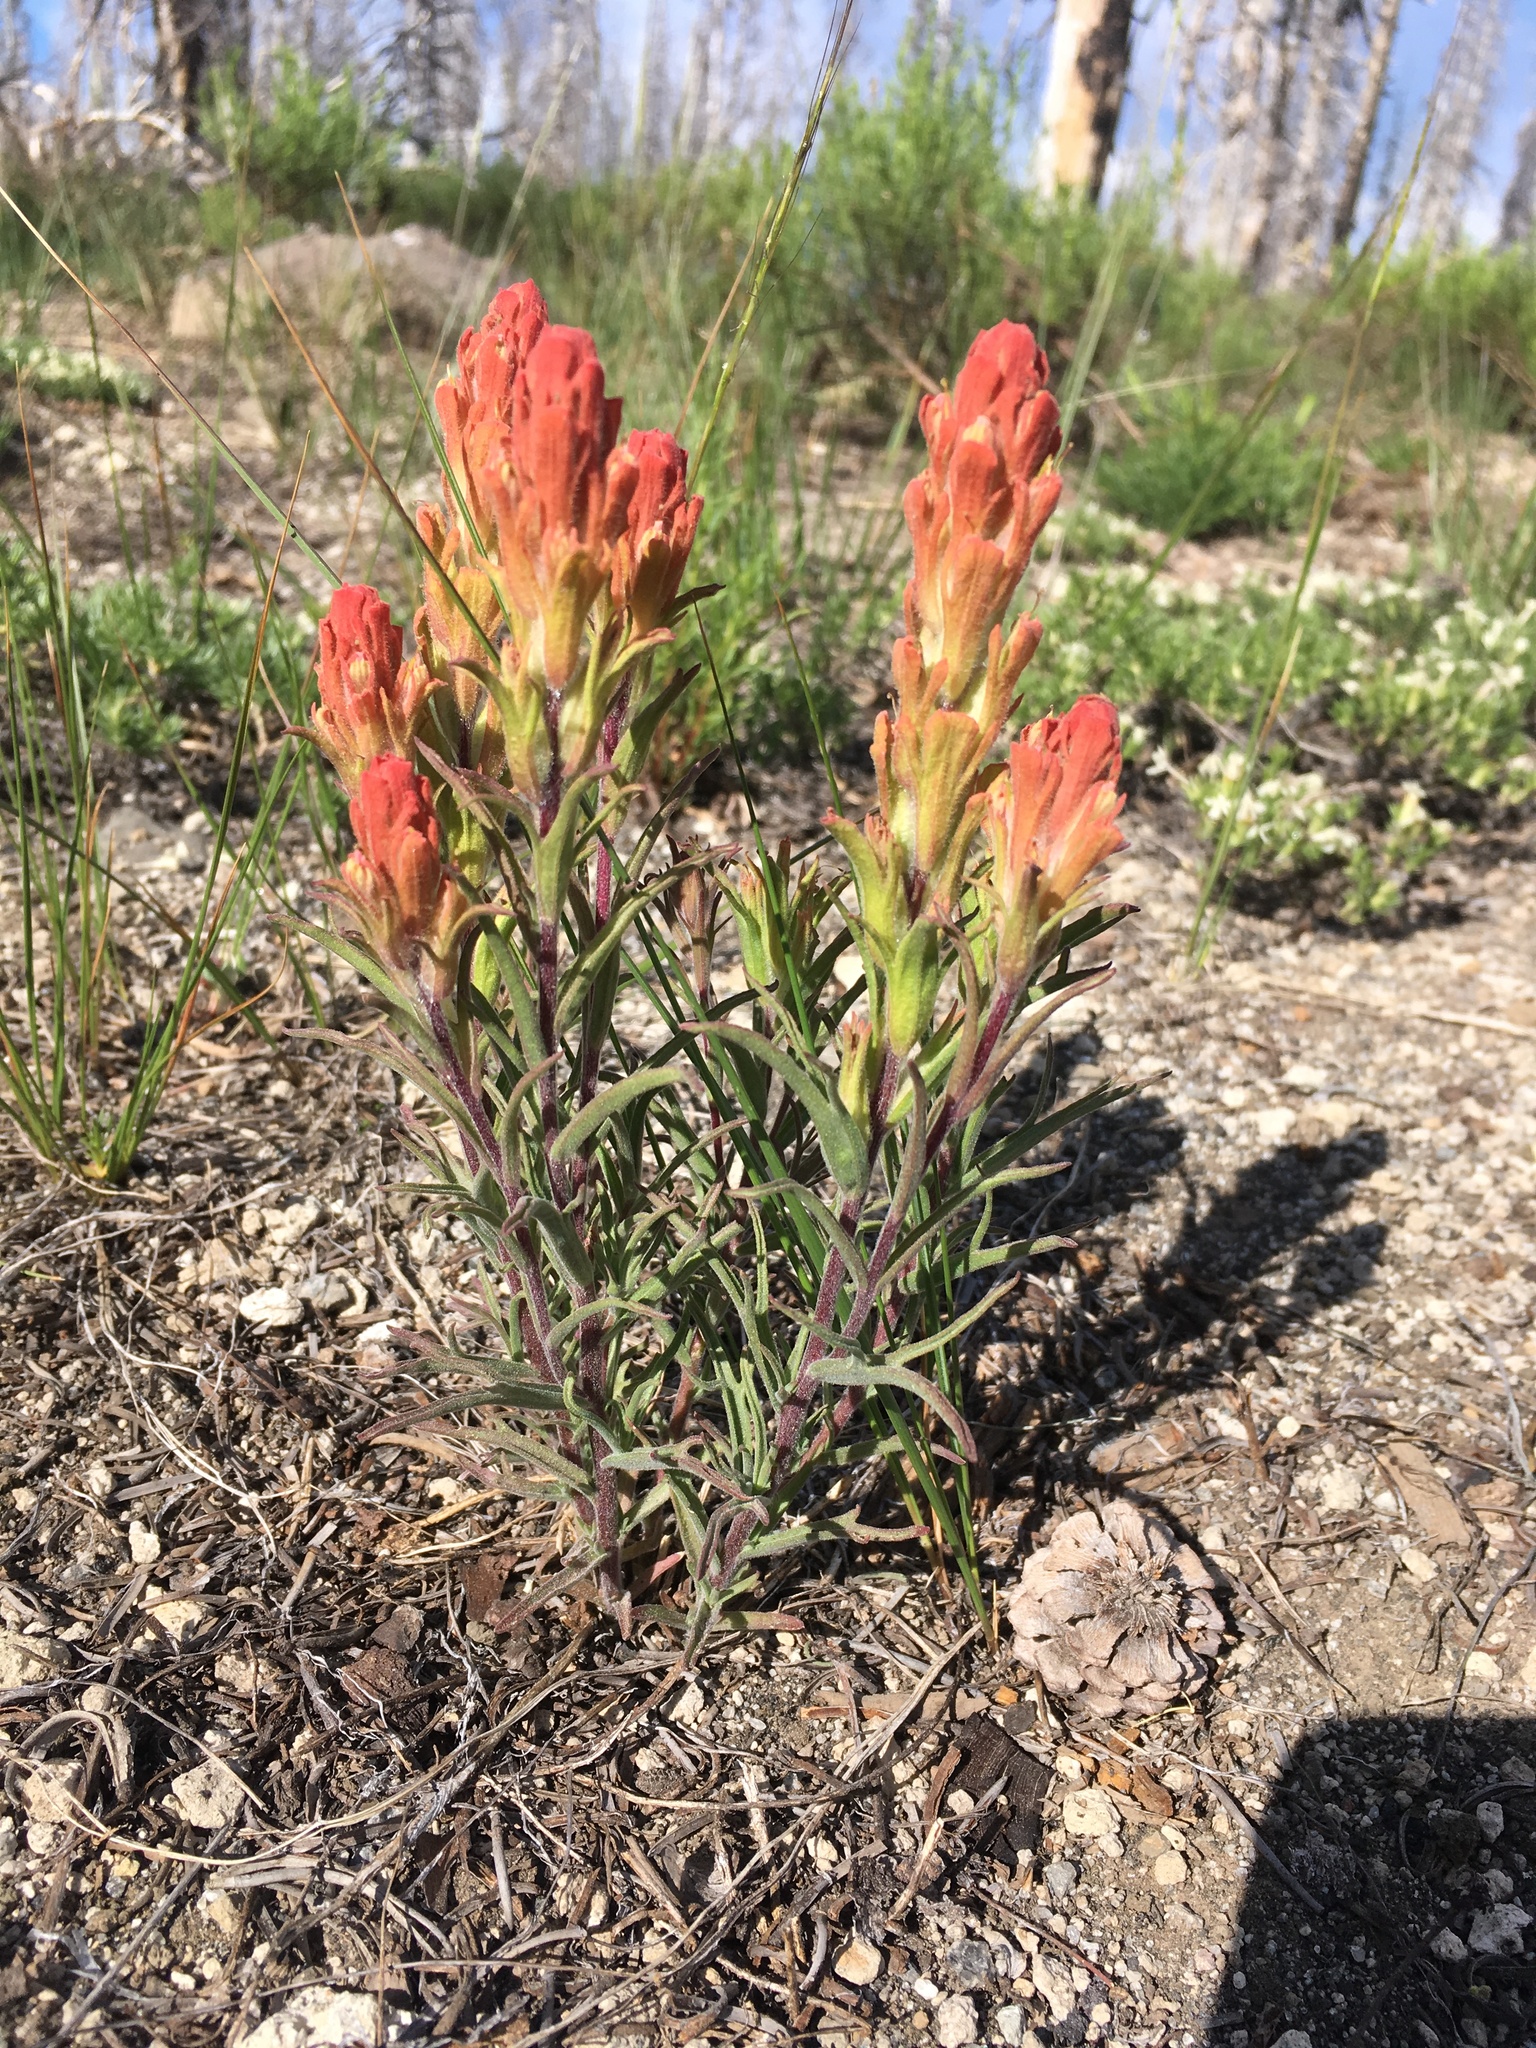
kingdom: Plantae
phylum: Tracheophyta
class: Magnoliopsida
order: Lamiales
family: Orobanchaceae
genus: Castilleja
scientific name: Castilleja arachnoidea
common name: Cobwebby indian paintbrush
